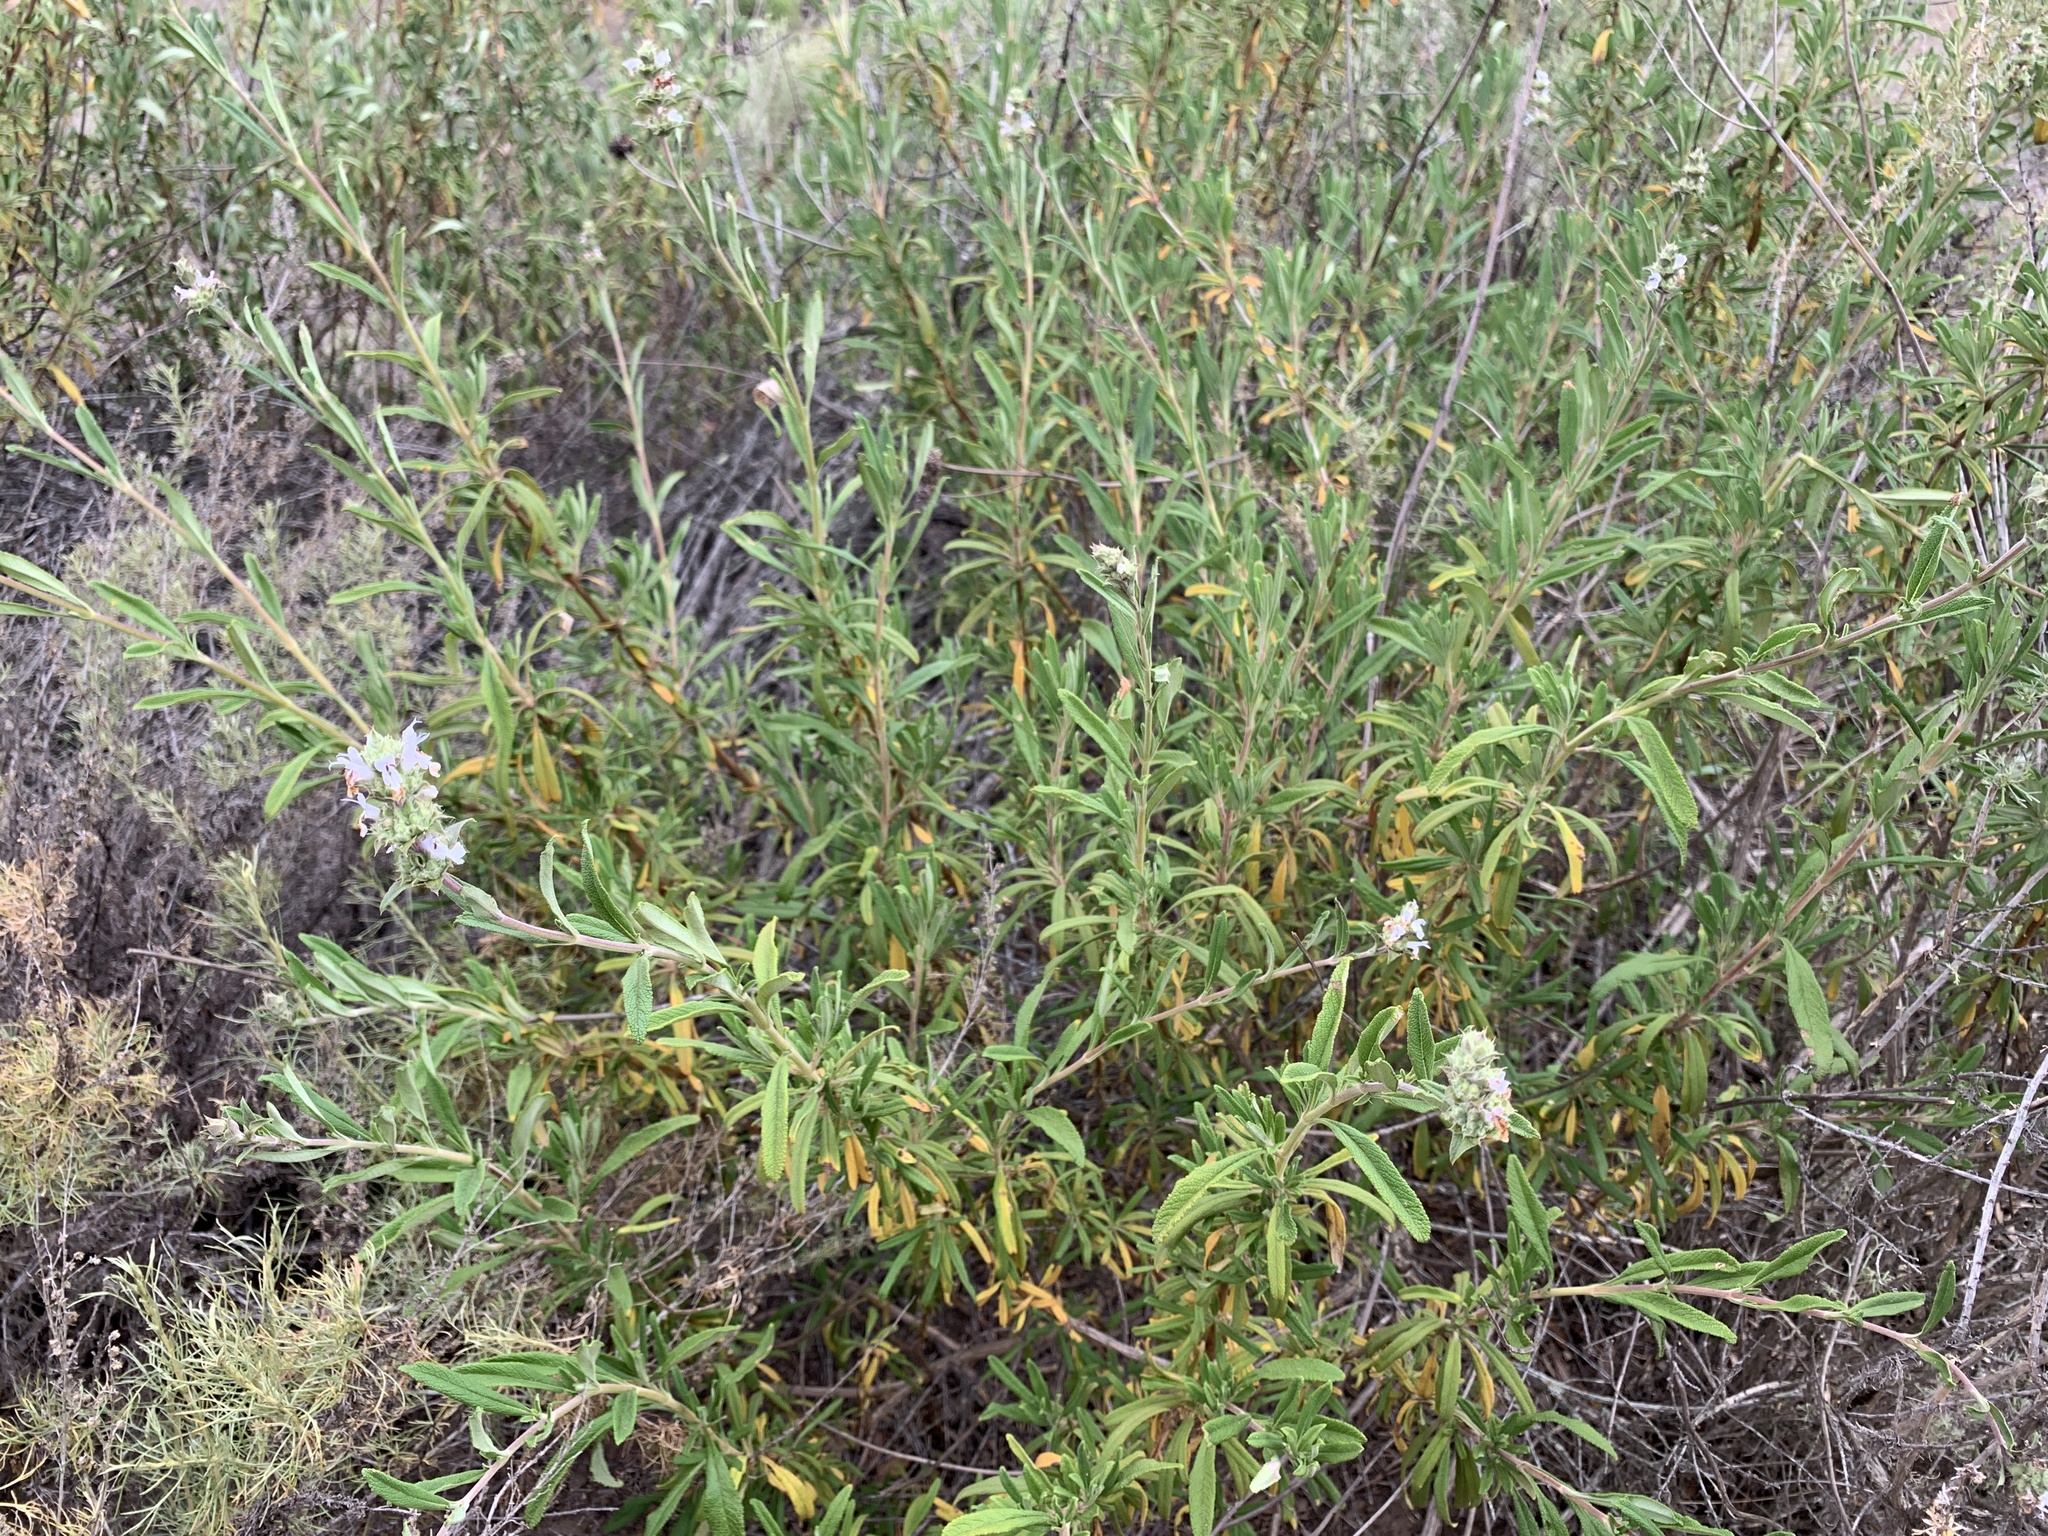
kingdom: Plantae
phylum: Tracheophyta
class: Magnoliopsida
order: Lamiales
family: Lamiaceae
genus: Salvia
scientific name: Salvia mellifera
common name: Black sage
